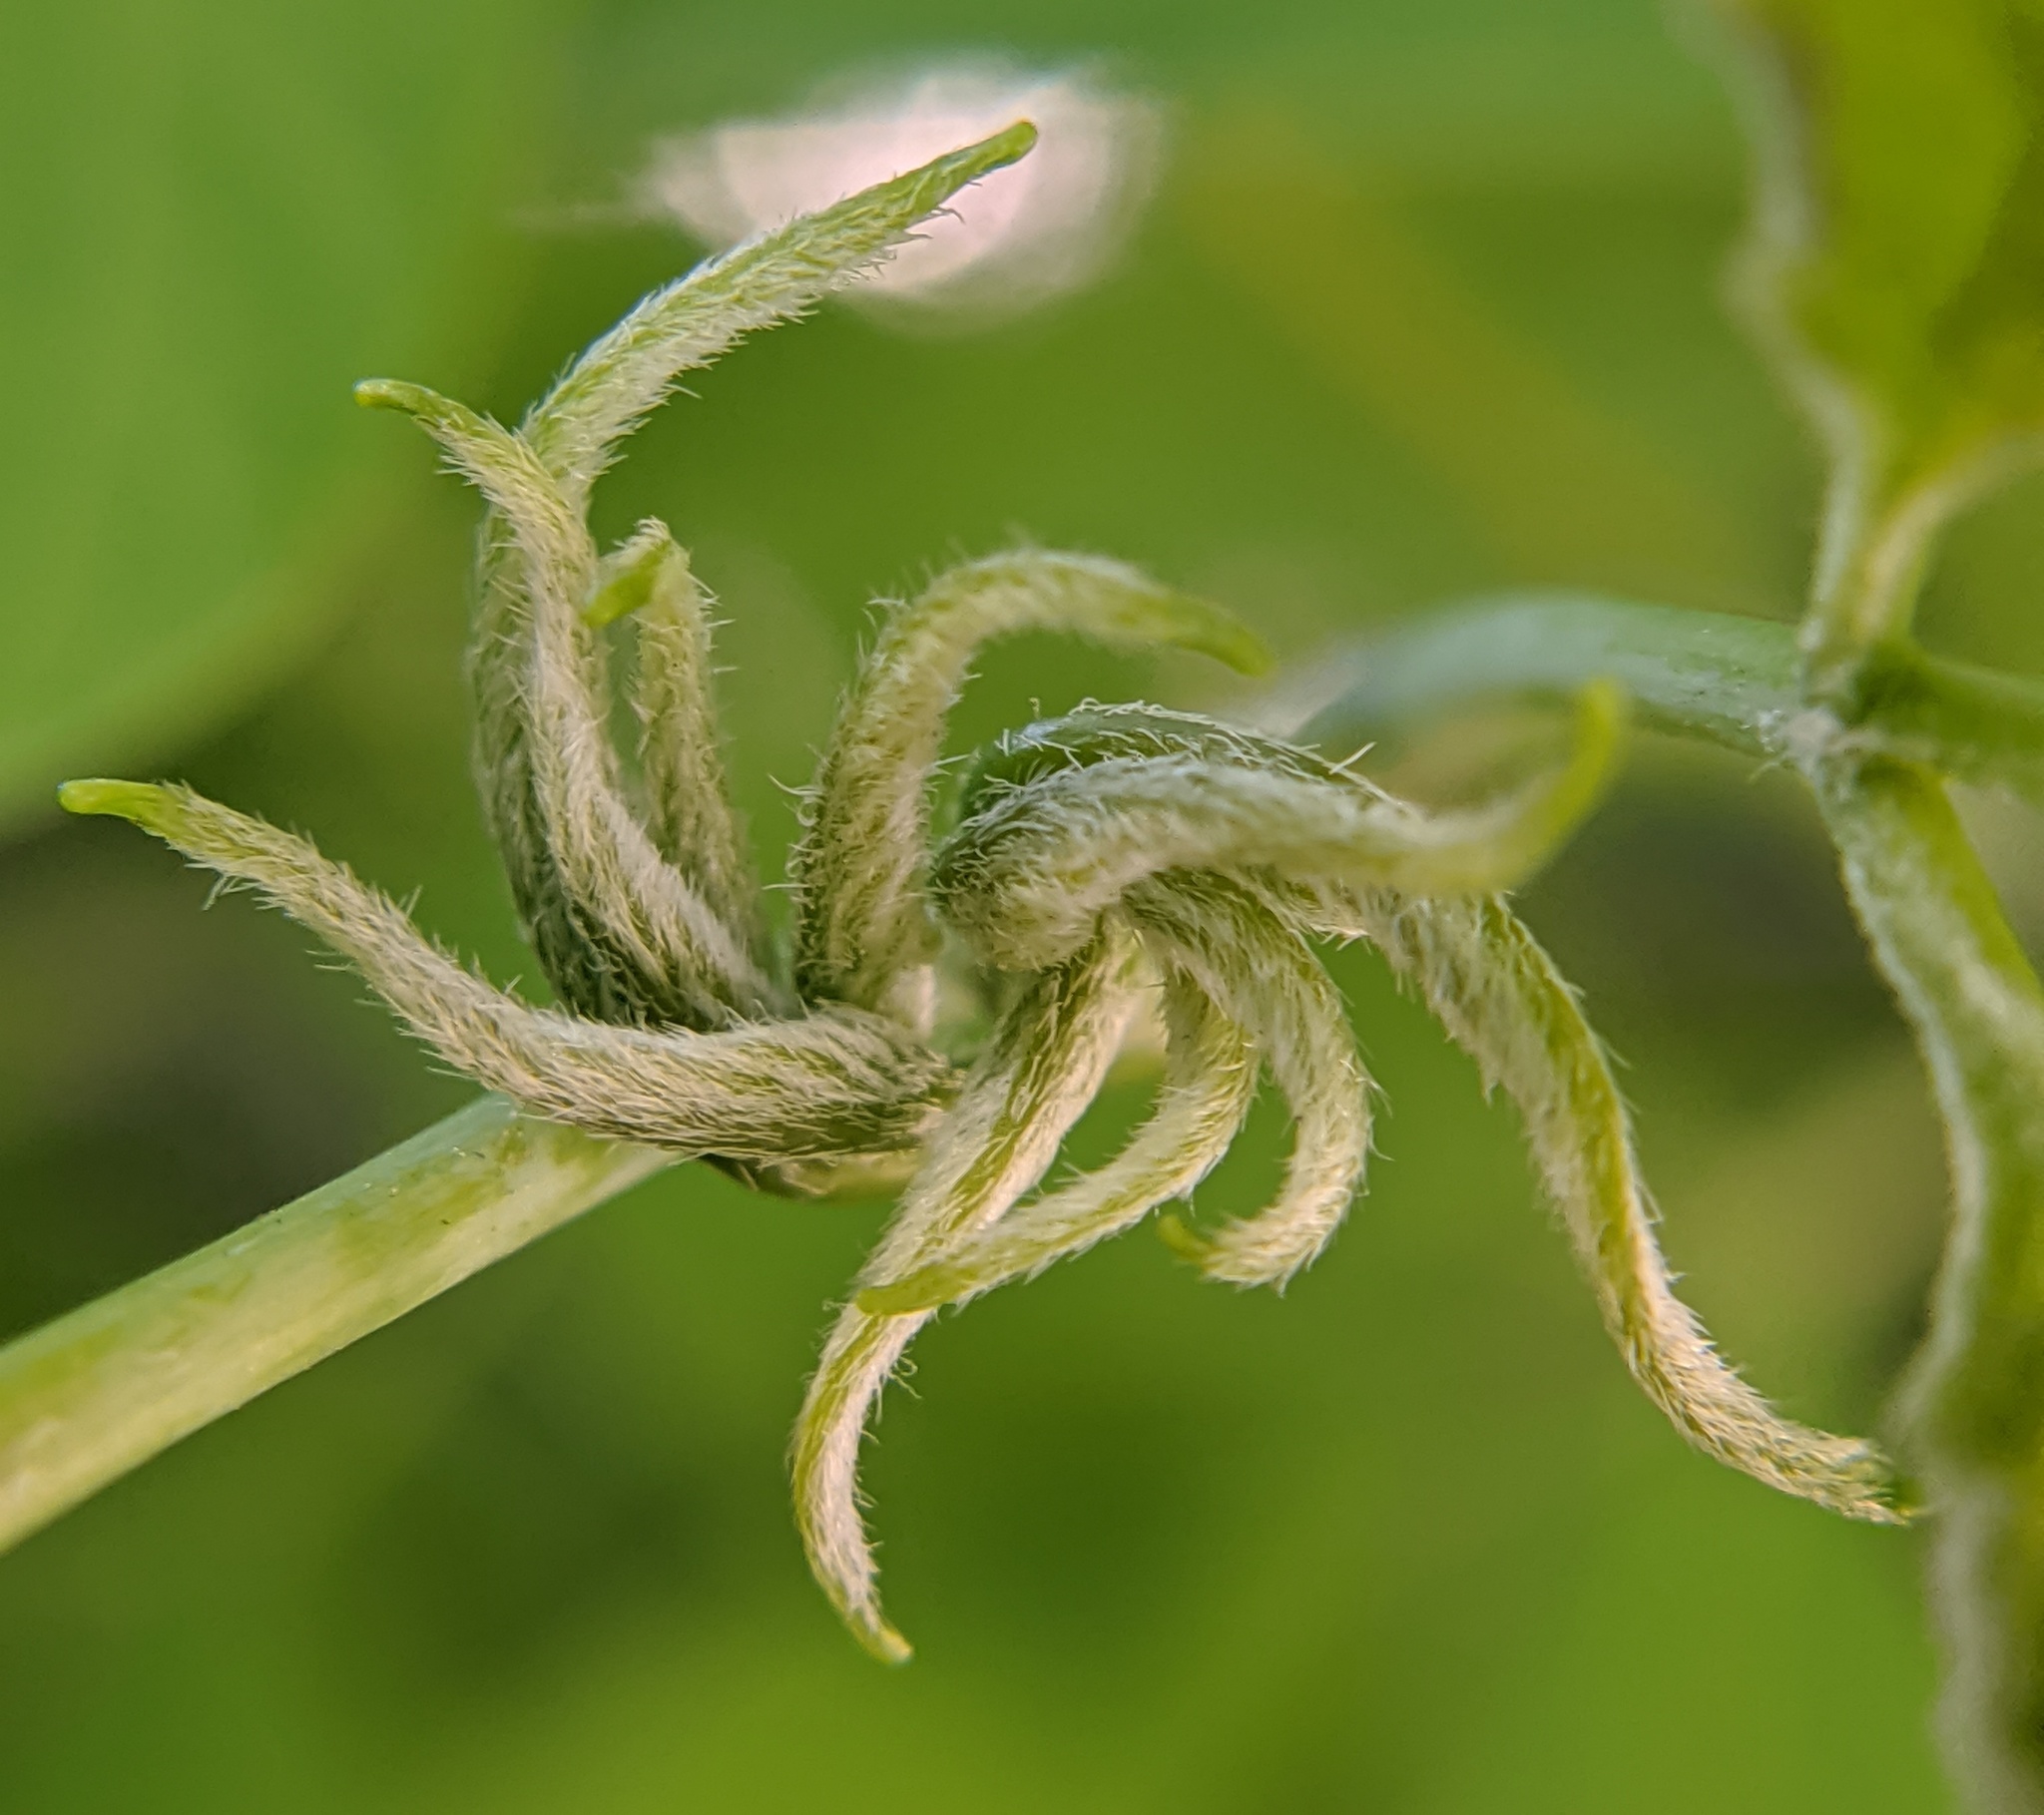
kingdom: Plantae
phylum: Tracheophyta
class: Magnoliopsida
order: Sapindales
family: Sapindaceae
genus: Acer
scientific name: Acer negundo
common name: Ashleaf maple
